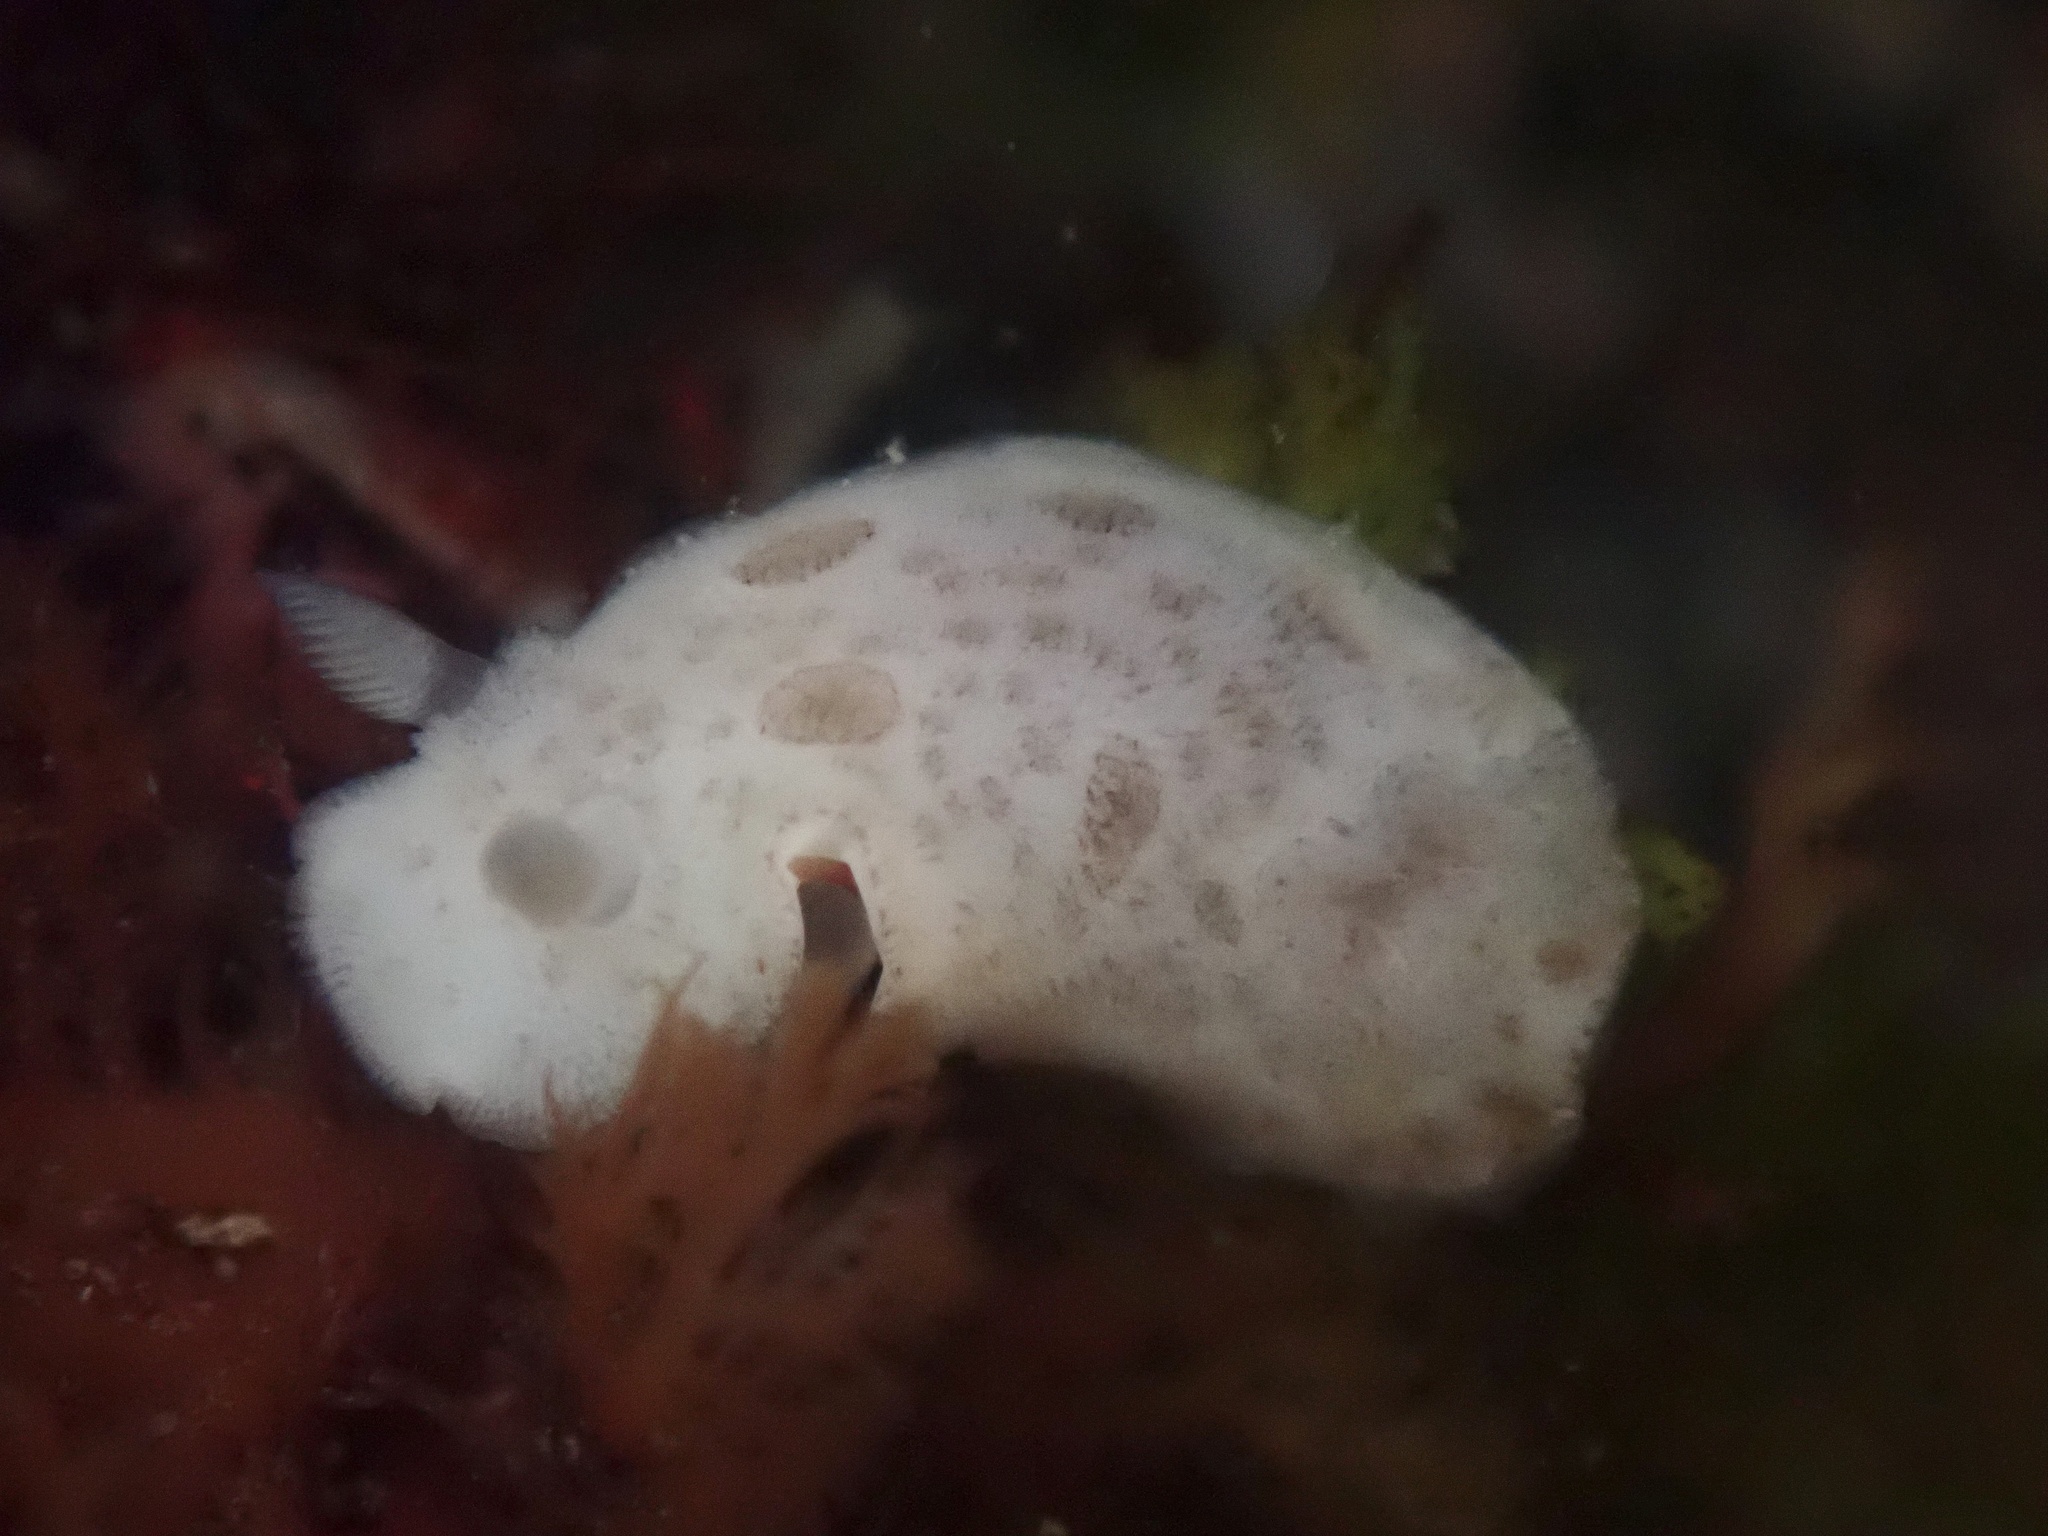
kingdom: Animalia
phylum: Mollusca
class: Gastropoda
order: Nudibranchia
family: Discodorididae
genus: Diaulula
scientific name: Diaulula sandiegensis
